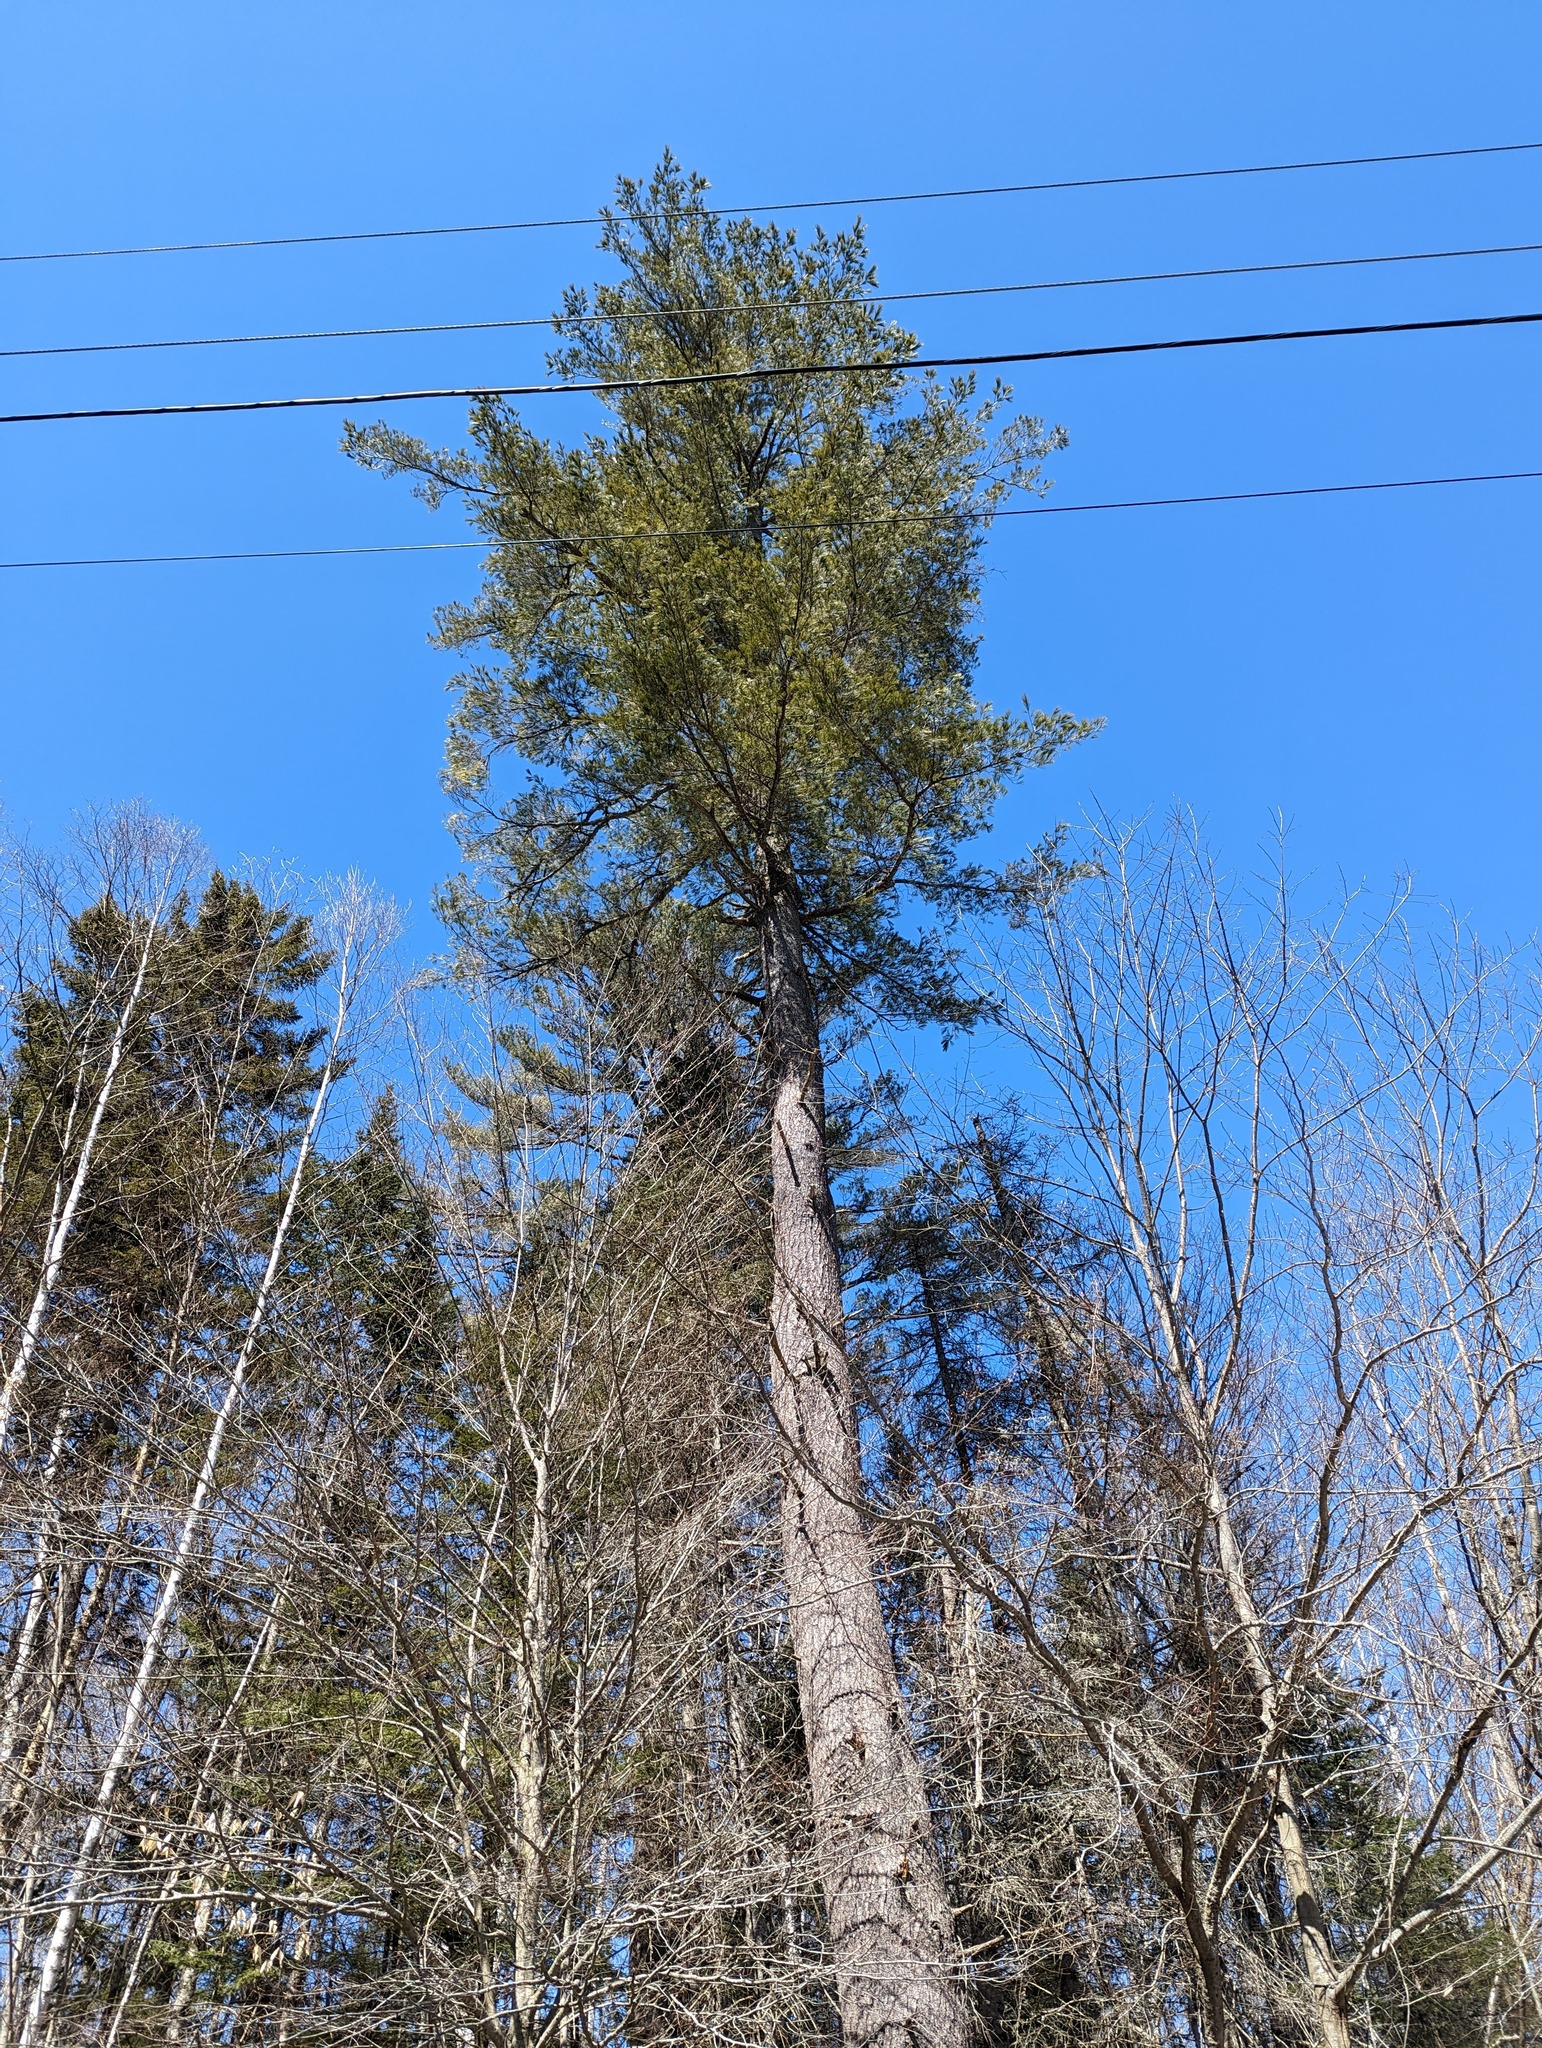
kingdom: Plantae
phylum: Tracheophyta
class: Pinopsida
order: Pinales
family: Pinaceae
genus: Pinus
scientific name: Pinus strobus
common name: Weymouth pine
